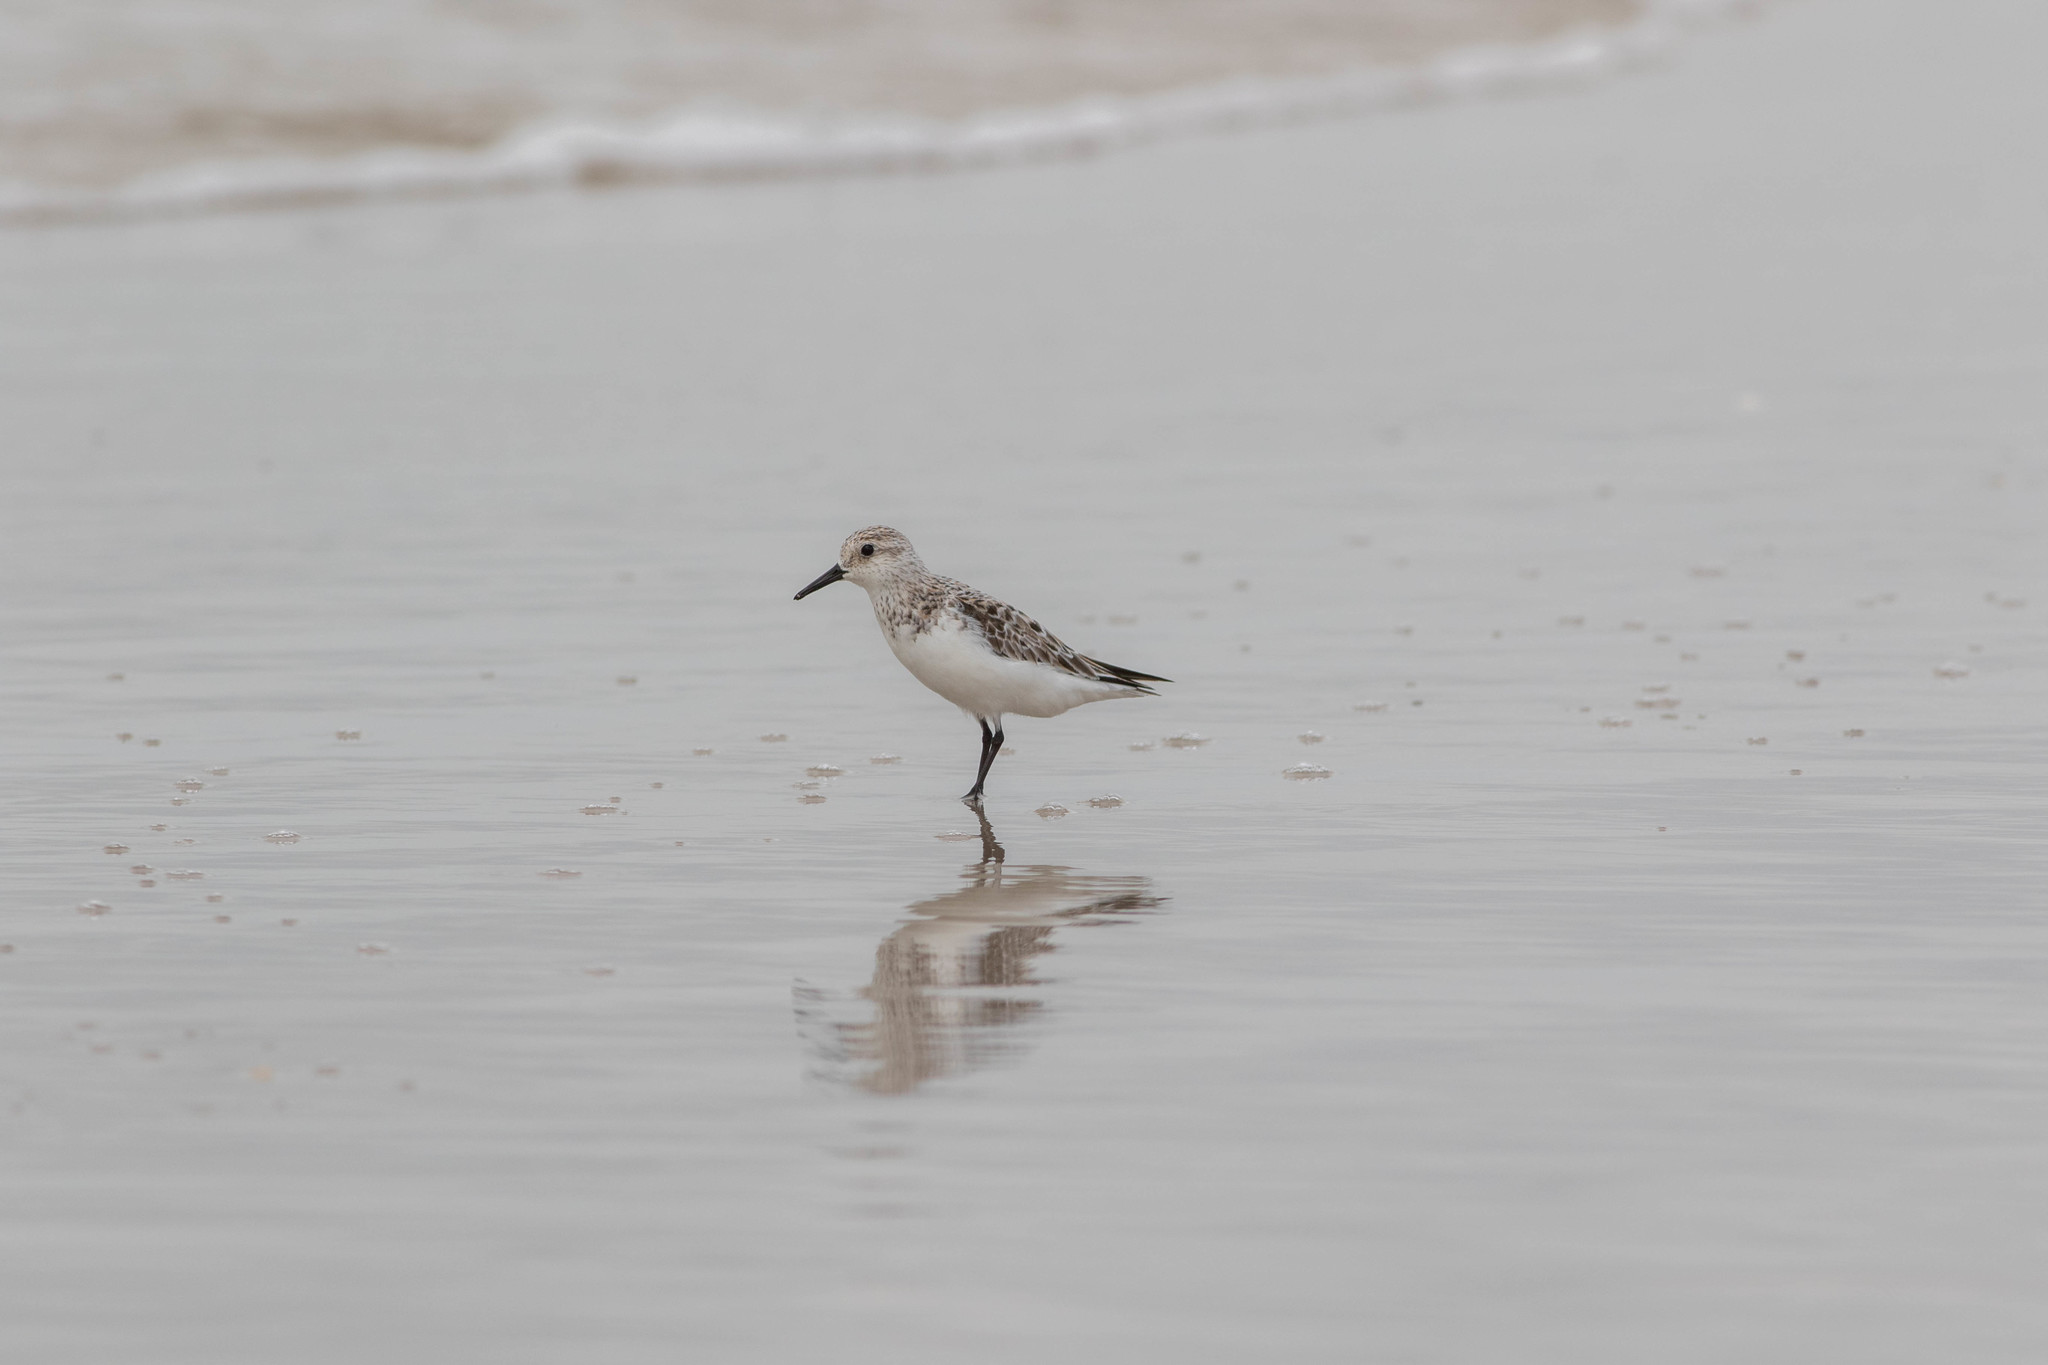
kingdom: Animalia
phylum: Chordata
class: Aves
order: Charadriiformes
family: Scolopacidae
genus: Calidris
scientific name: Calidris alba
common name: Sanderling
